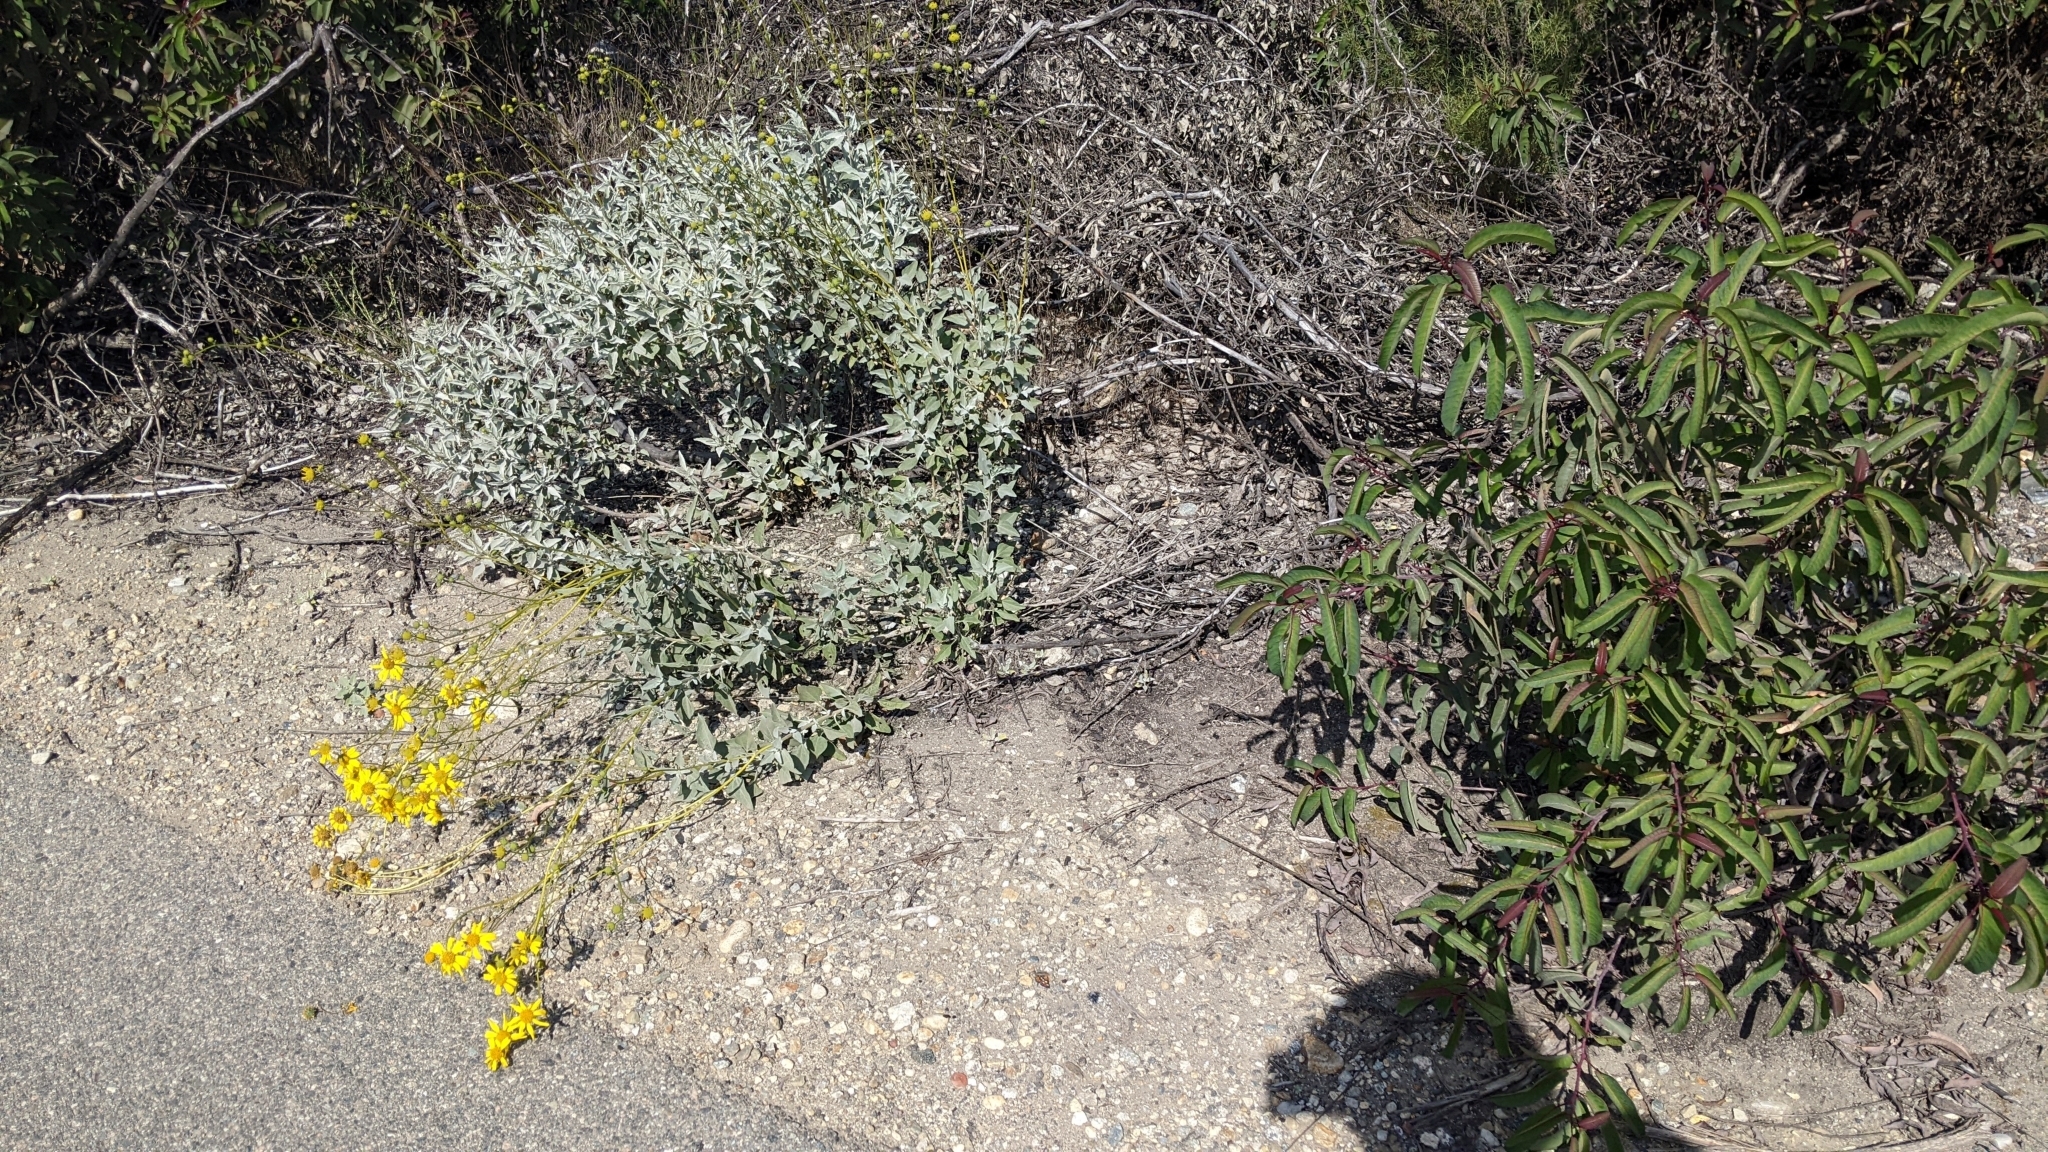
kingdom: Plantae
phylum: Tracheophyta
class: Magnoliopsida
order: Asterales
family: Asteraceae
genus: Encelia
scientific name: Encelia farinosa
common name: Brittlebush
